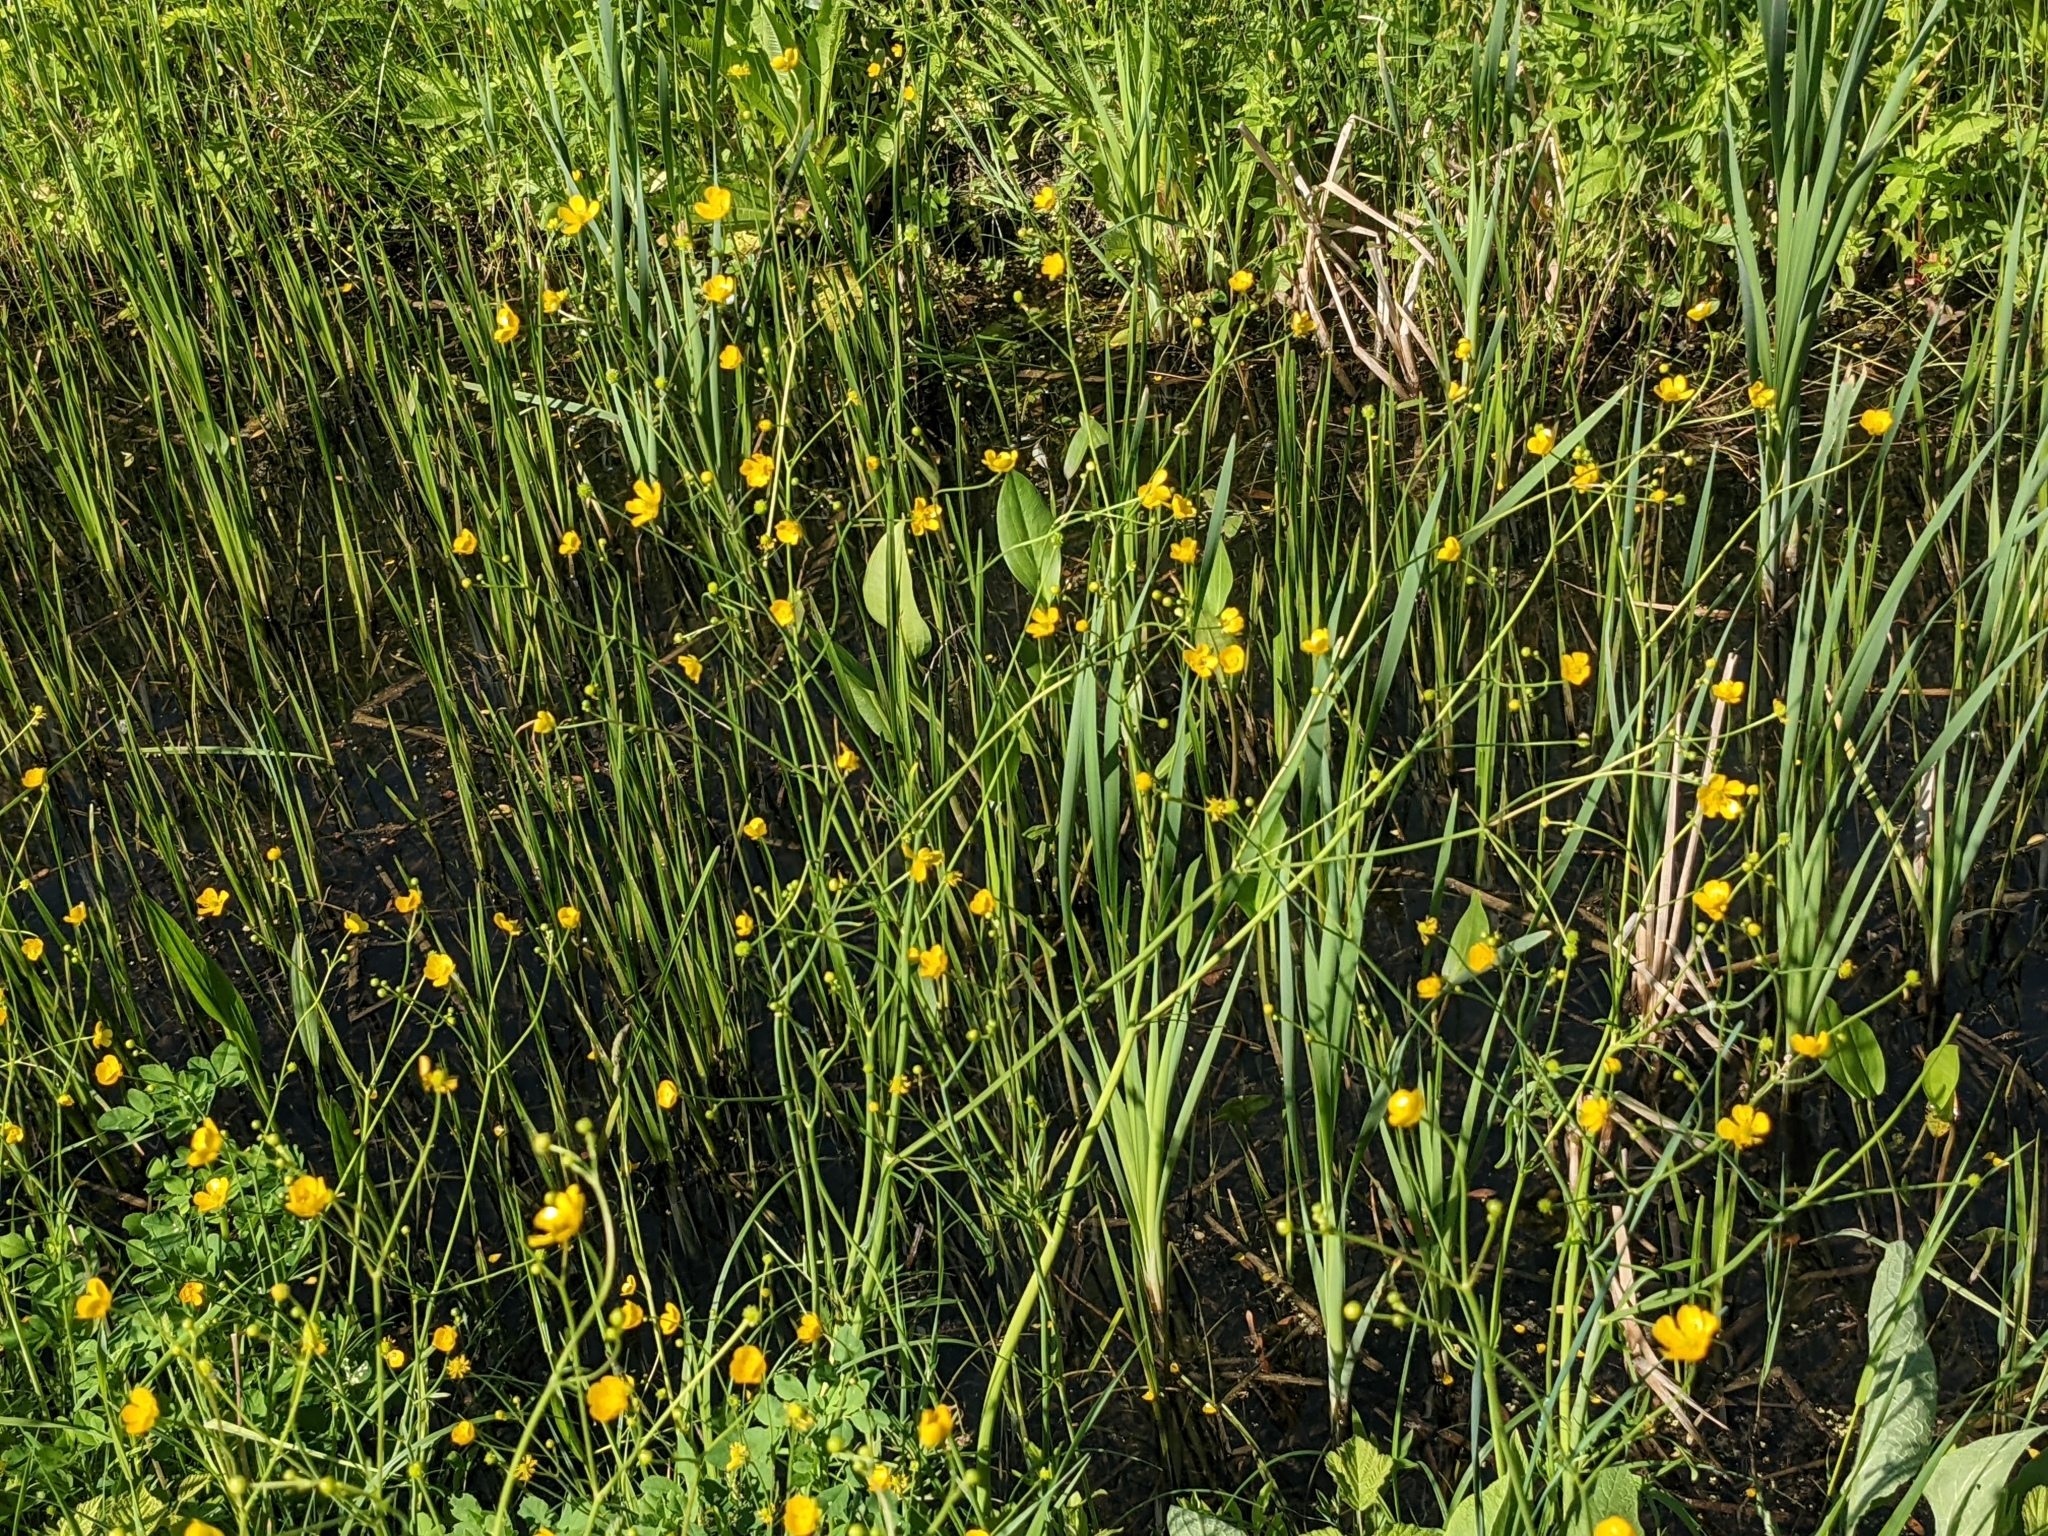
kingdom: Plantae
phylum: Tracheophyta
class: Magnoliopsida
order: Ranunculales
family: Ranunculaceae
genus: Ranunculus
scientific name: Ranunculus acris
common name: Meadow buttercup
